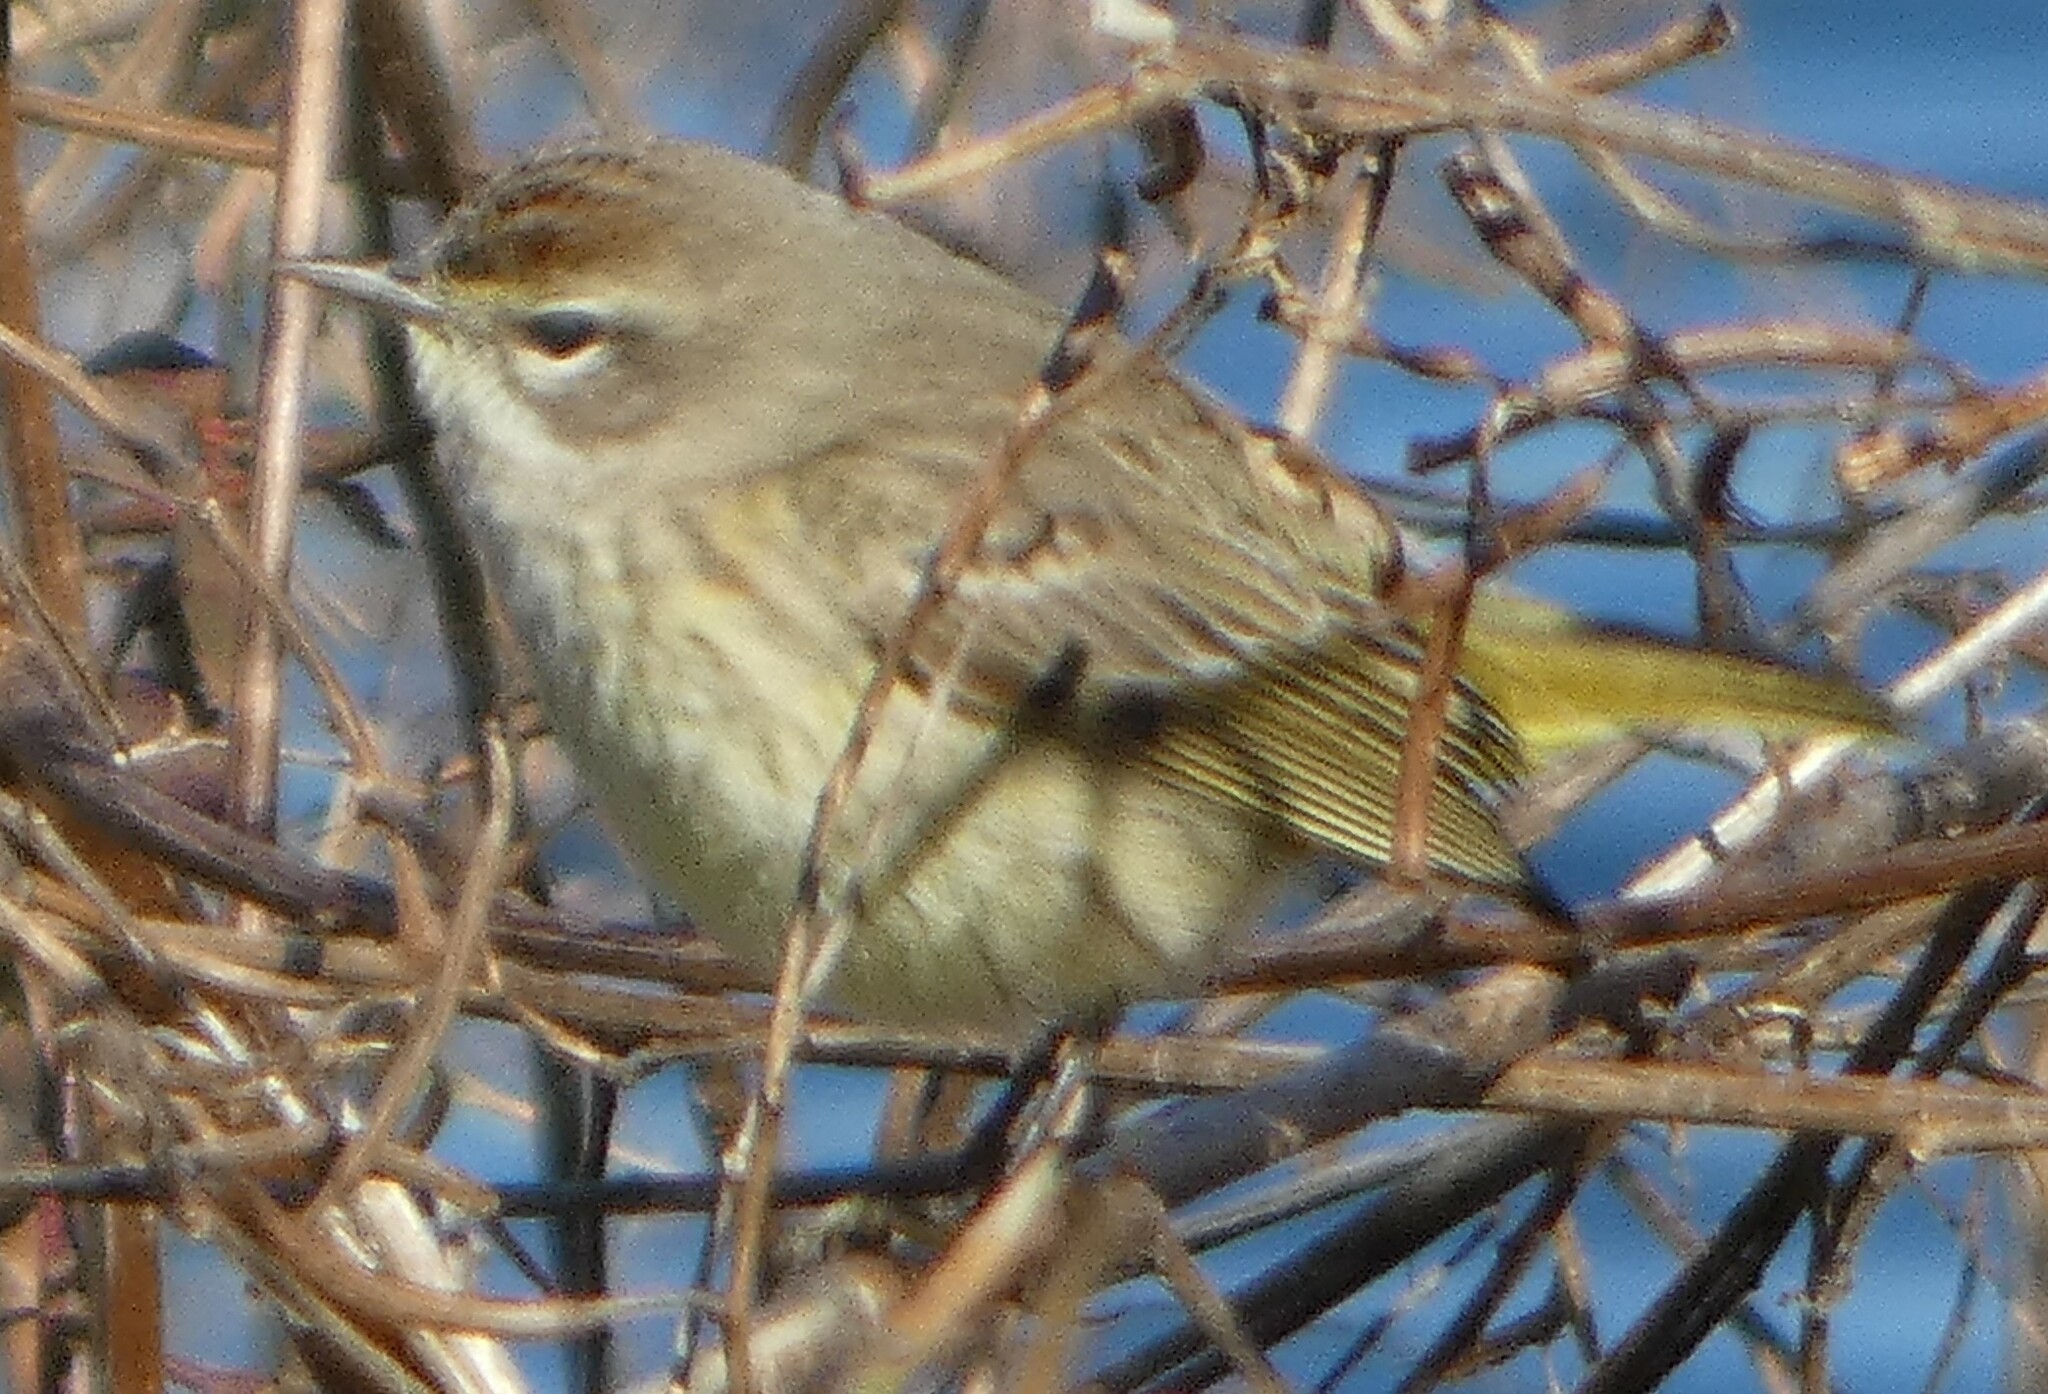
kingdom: Animalia
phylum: Chordata
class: Aves
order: Passeriformes
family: Parulidae
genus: Setophaga
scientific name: Setophaga palmarum
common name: Palm warbler
